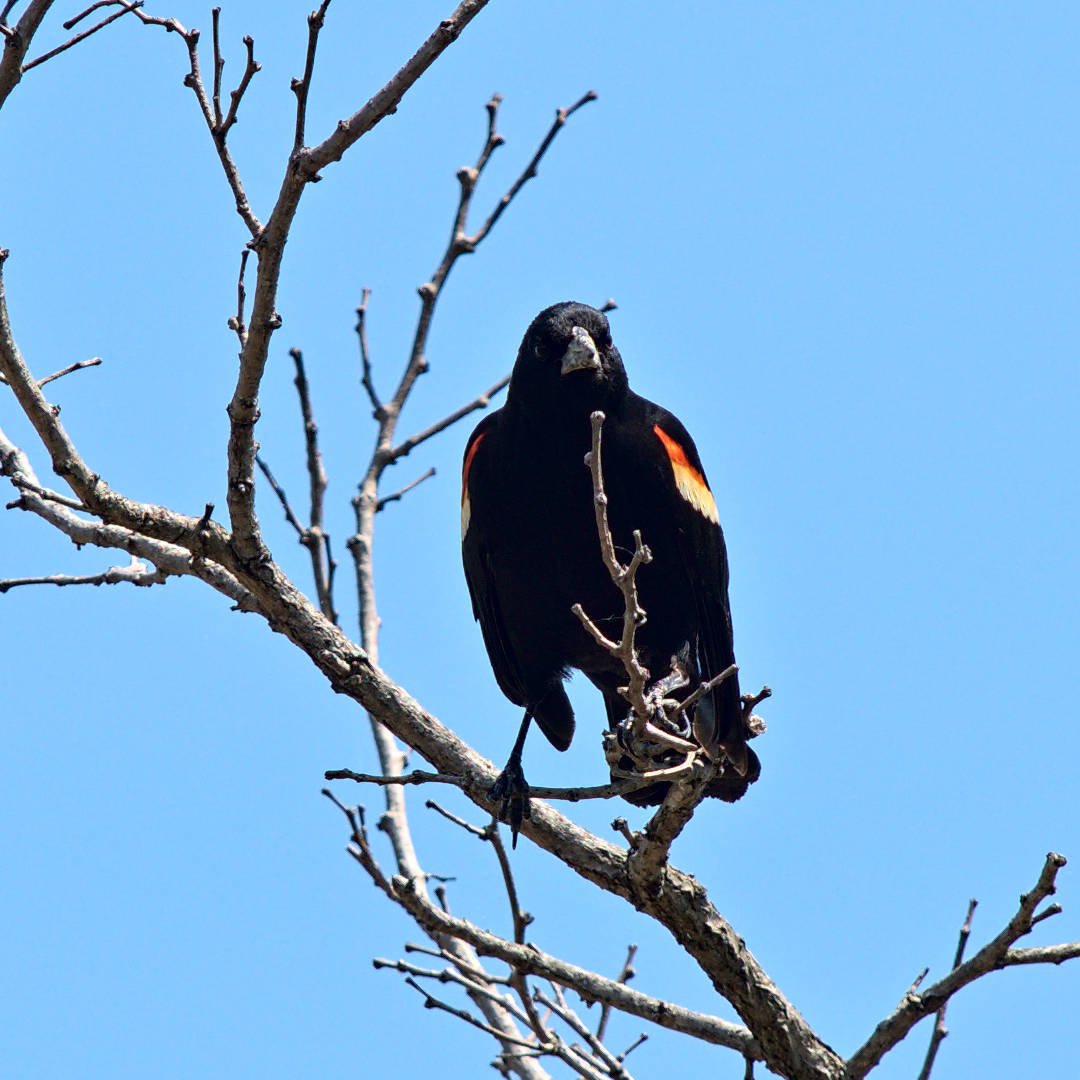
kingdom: Animalia
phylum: Chordata
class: Aves
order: Passeriformes
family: Icteridae
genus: Agelaius
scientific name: Agelaius phoeniceus
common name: Red-winged blackbird
